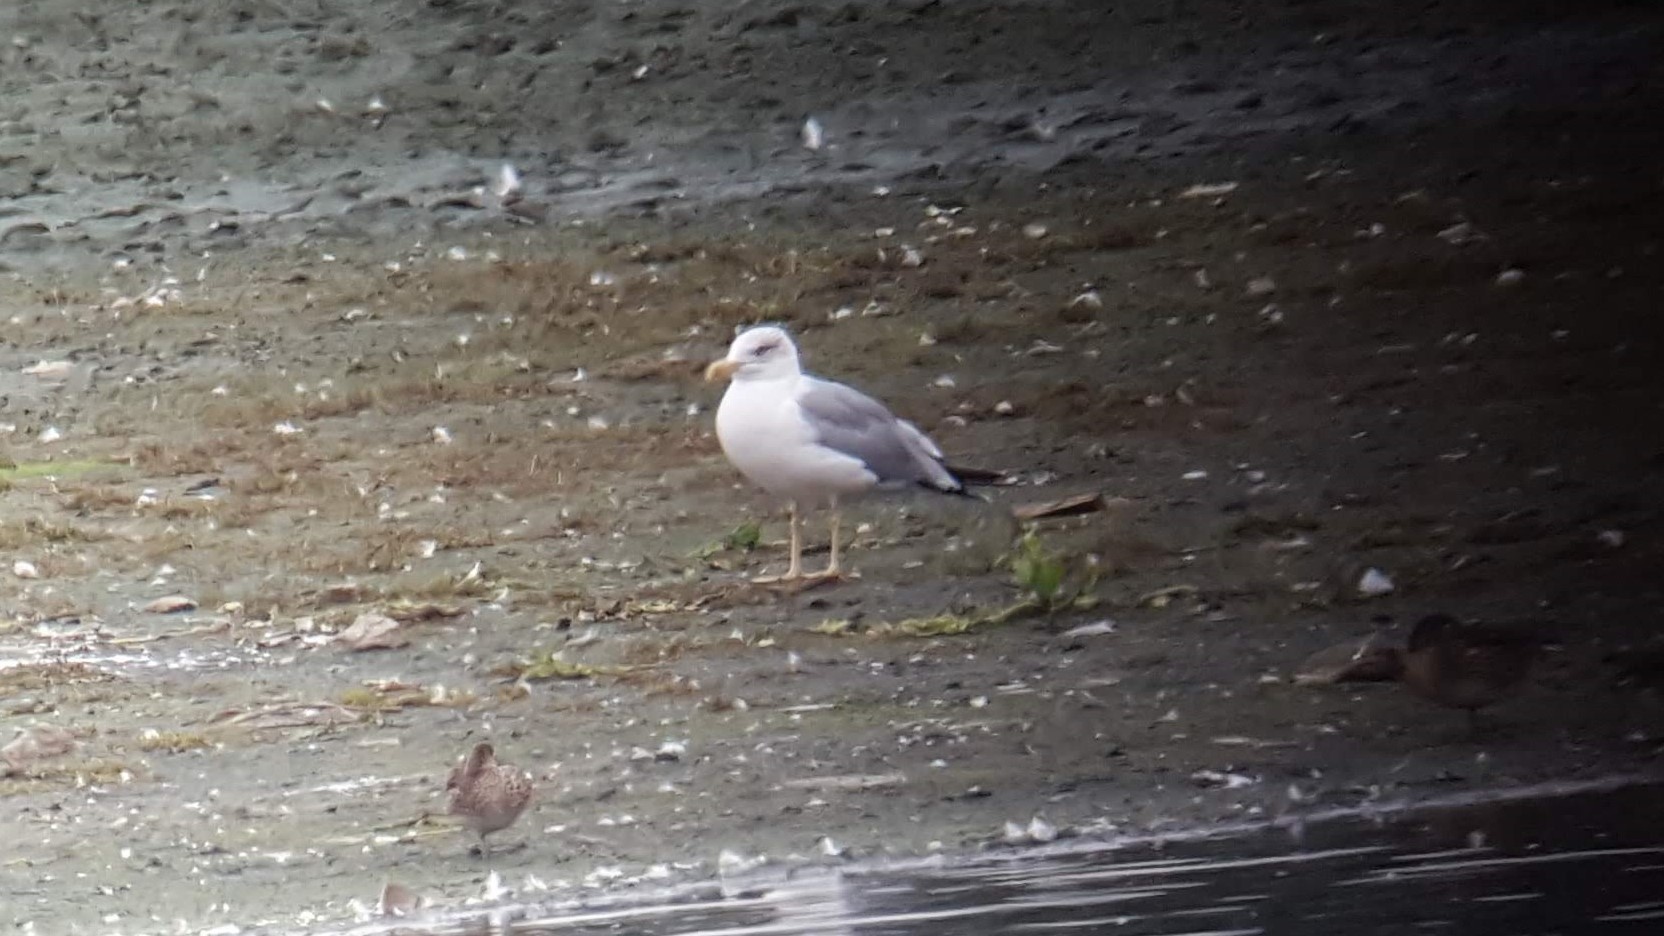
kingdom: Animalia
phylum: Chordata
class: Aves
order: Charadriiformes
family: Laridae
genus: Larus
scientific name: Larus argentatus
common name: Herring gull
